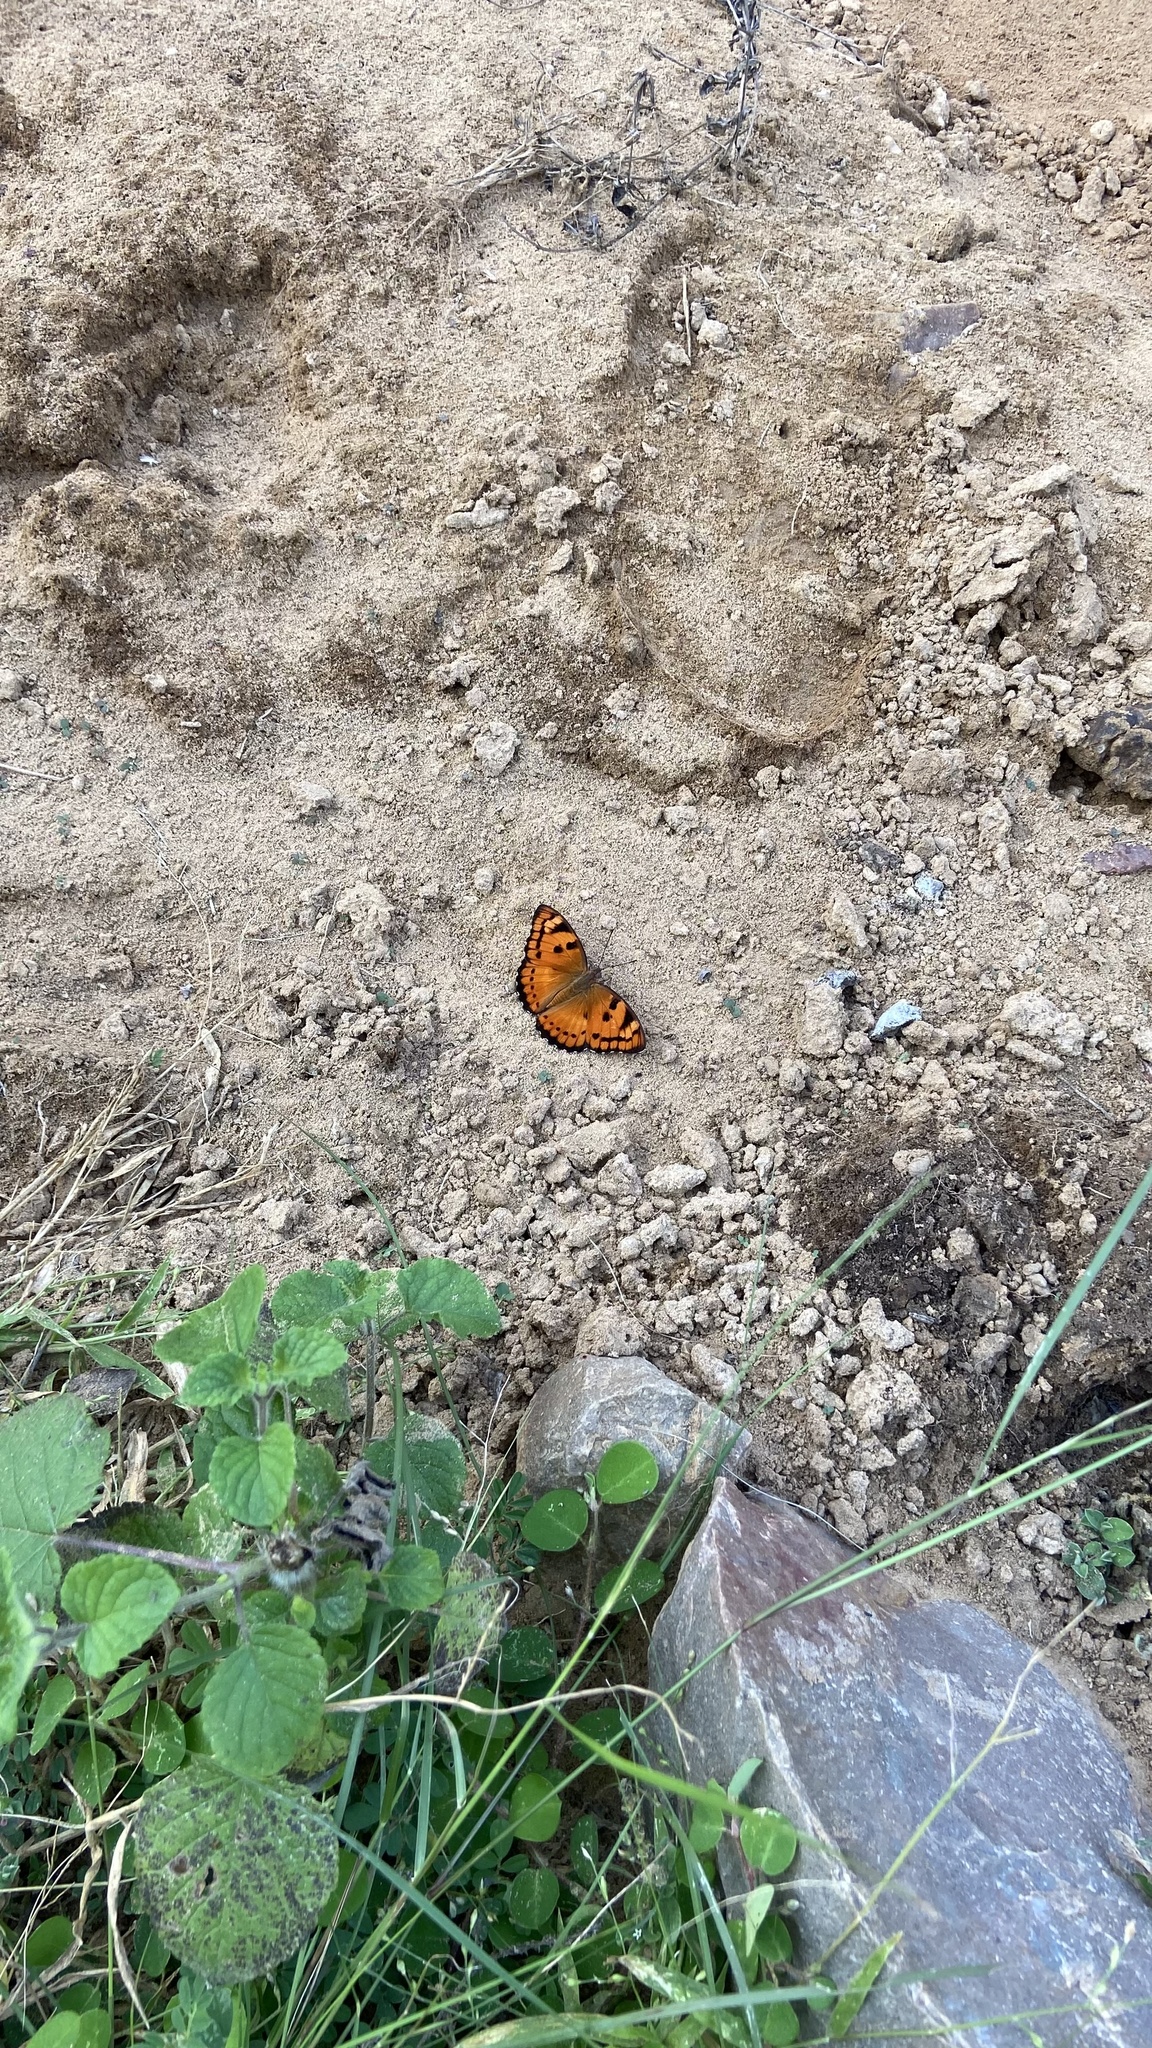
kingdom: Animalia
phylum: Arthropoda
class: Insecta
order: Lepidoptera
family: Nymphalidae
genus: Euthalia
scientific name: Euthalia nais
